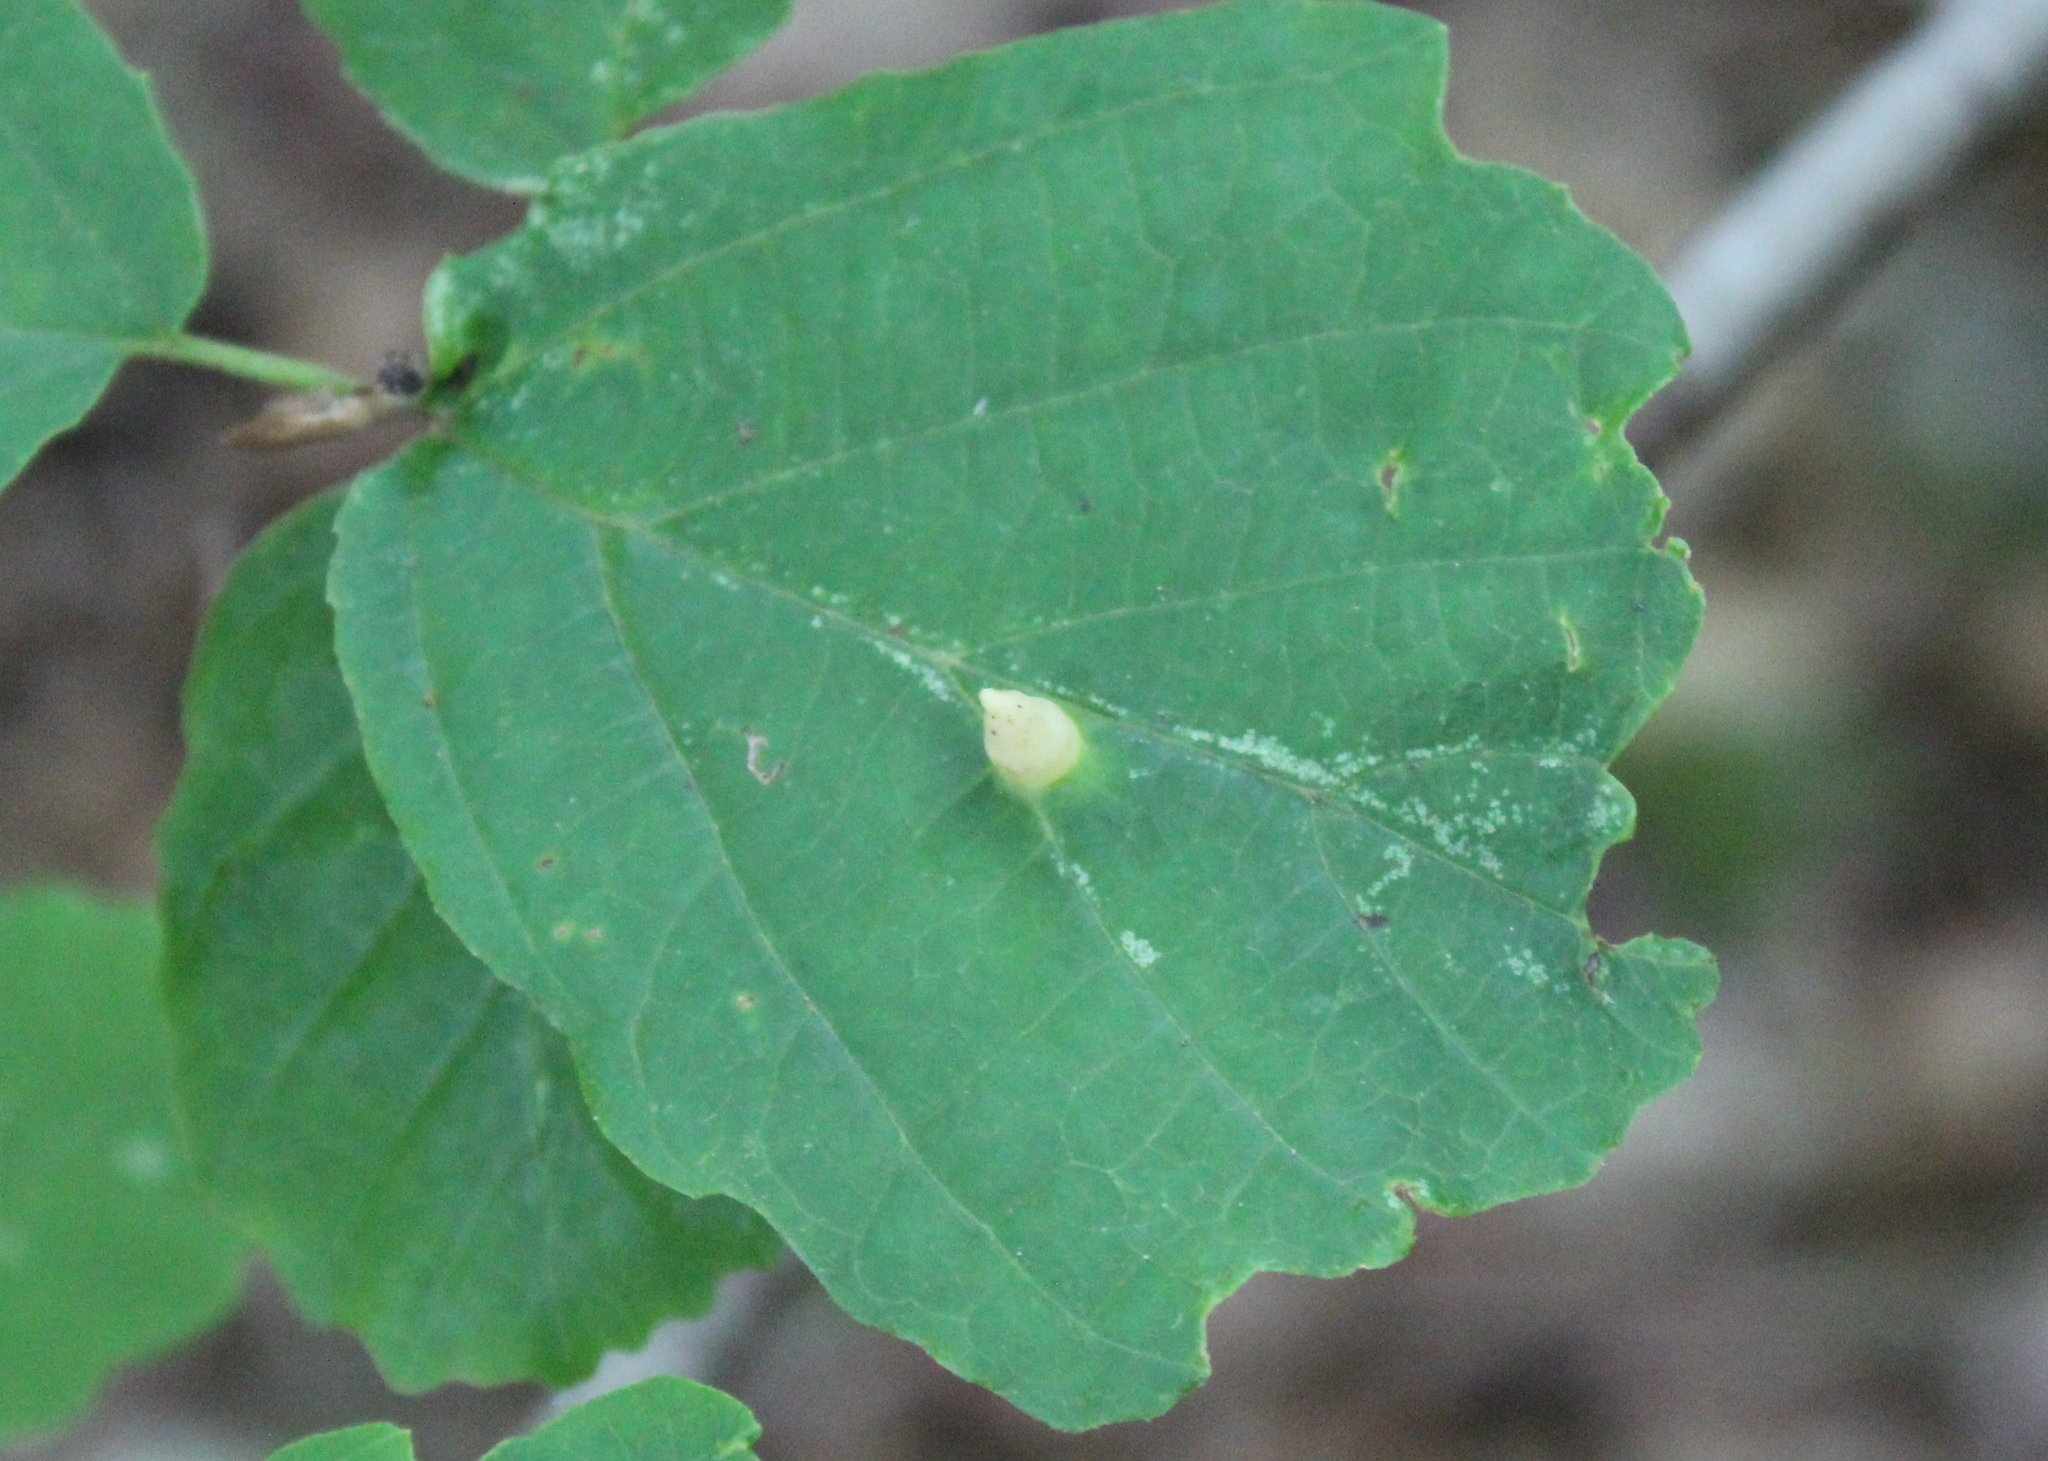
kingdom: Plantae
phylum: Tracheophyta
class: Magnoliopsida
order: Saxifragales
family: Hamamelidaceae
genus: Hamamelis
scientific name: Hamamelis virginiana
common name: Witch-hazel
